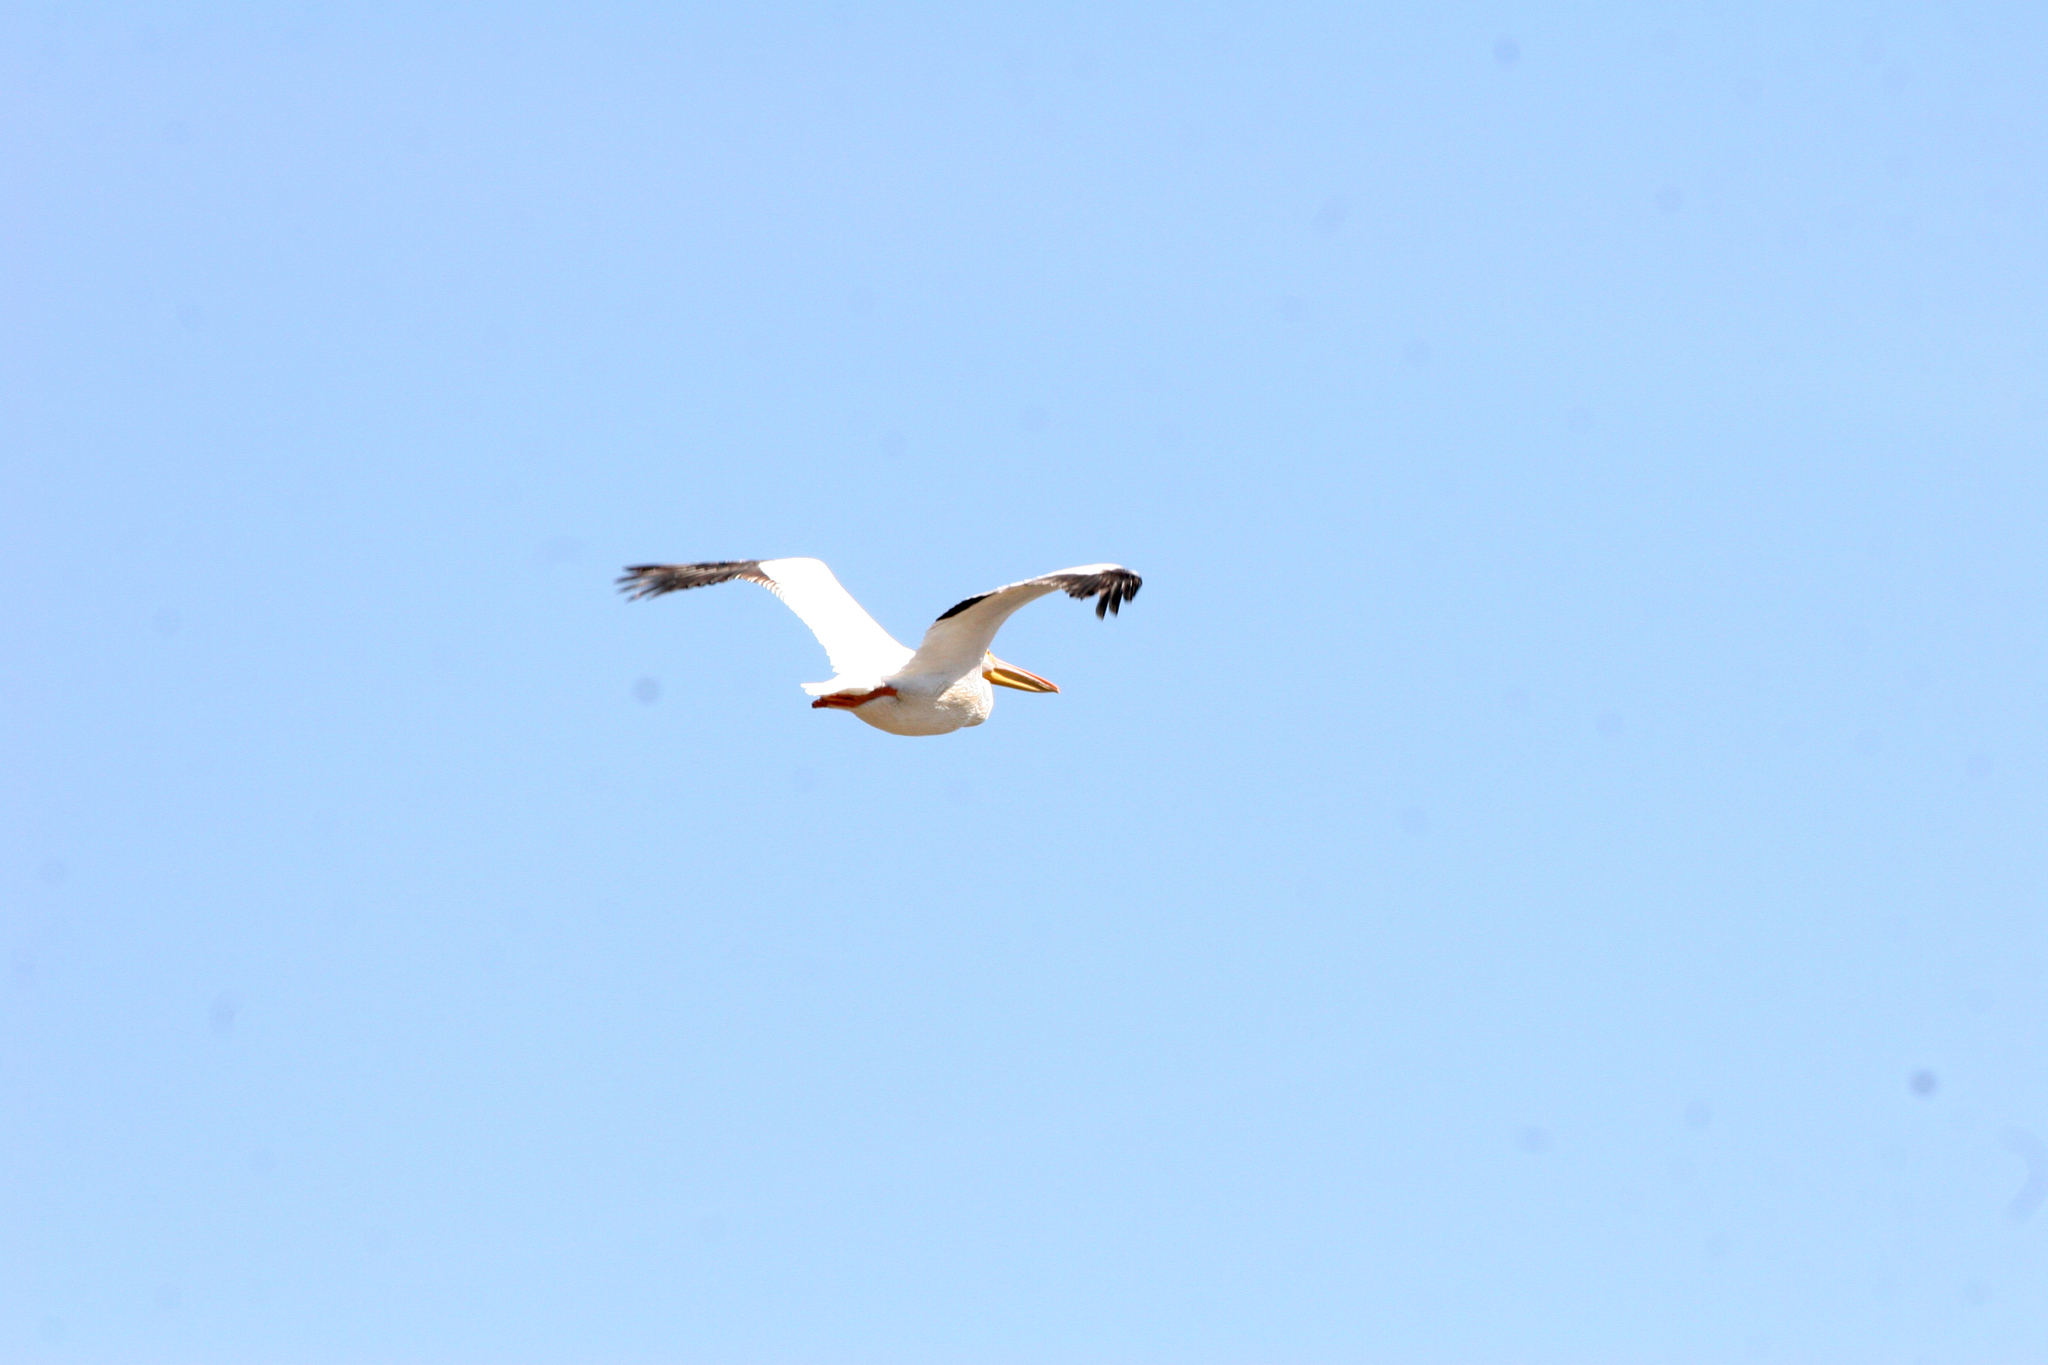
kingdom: Animalia
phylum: Chordata
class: Aves
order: Pelecaniformes
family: Pelecanidae
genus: Pelecanus
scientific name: Pelecanus erythrorhynchos
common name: American white pelican
